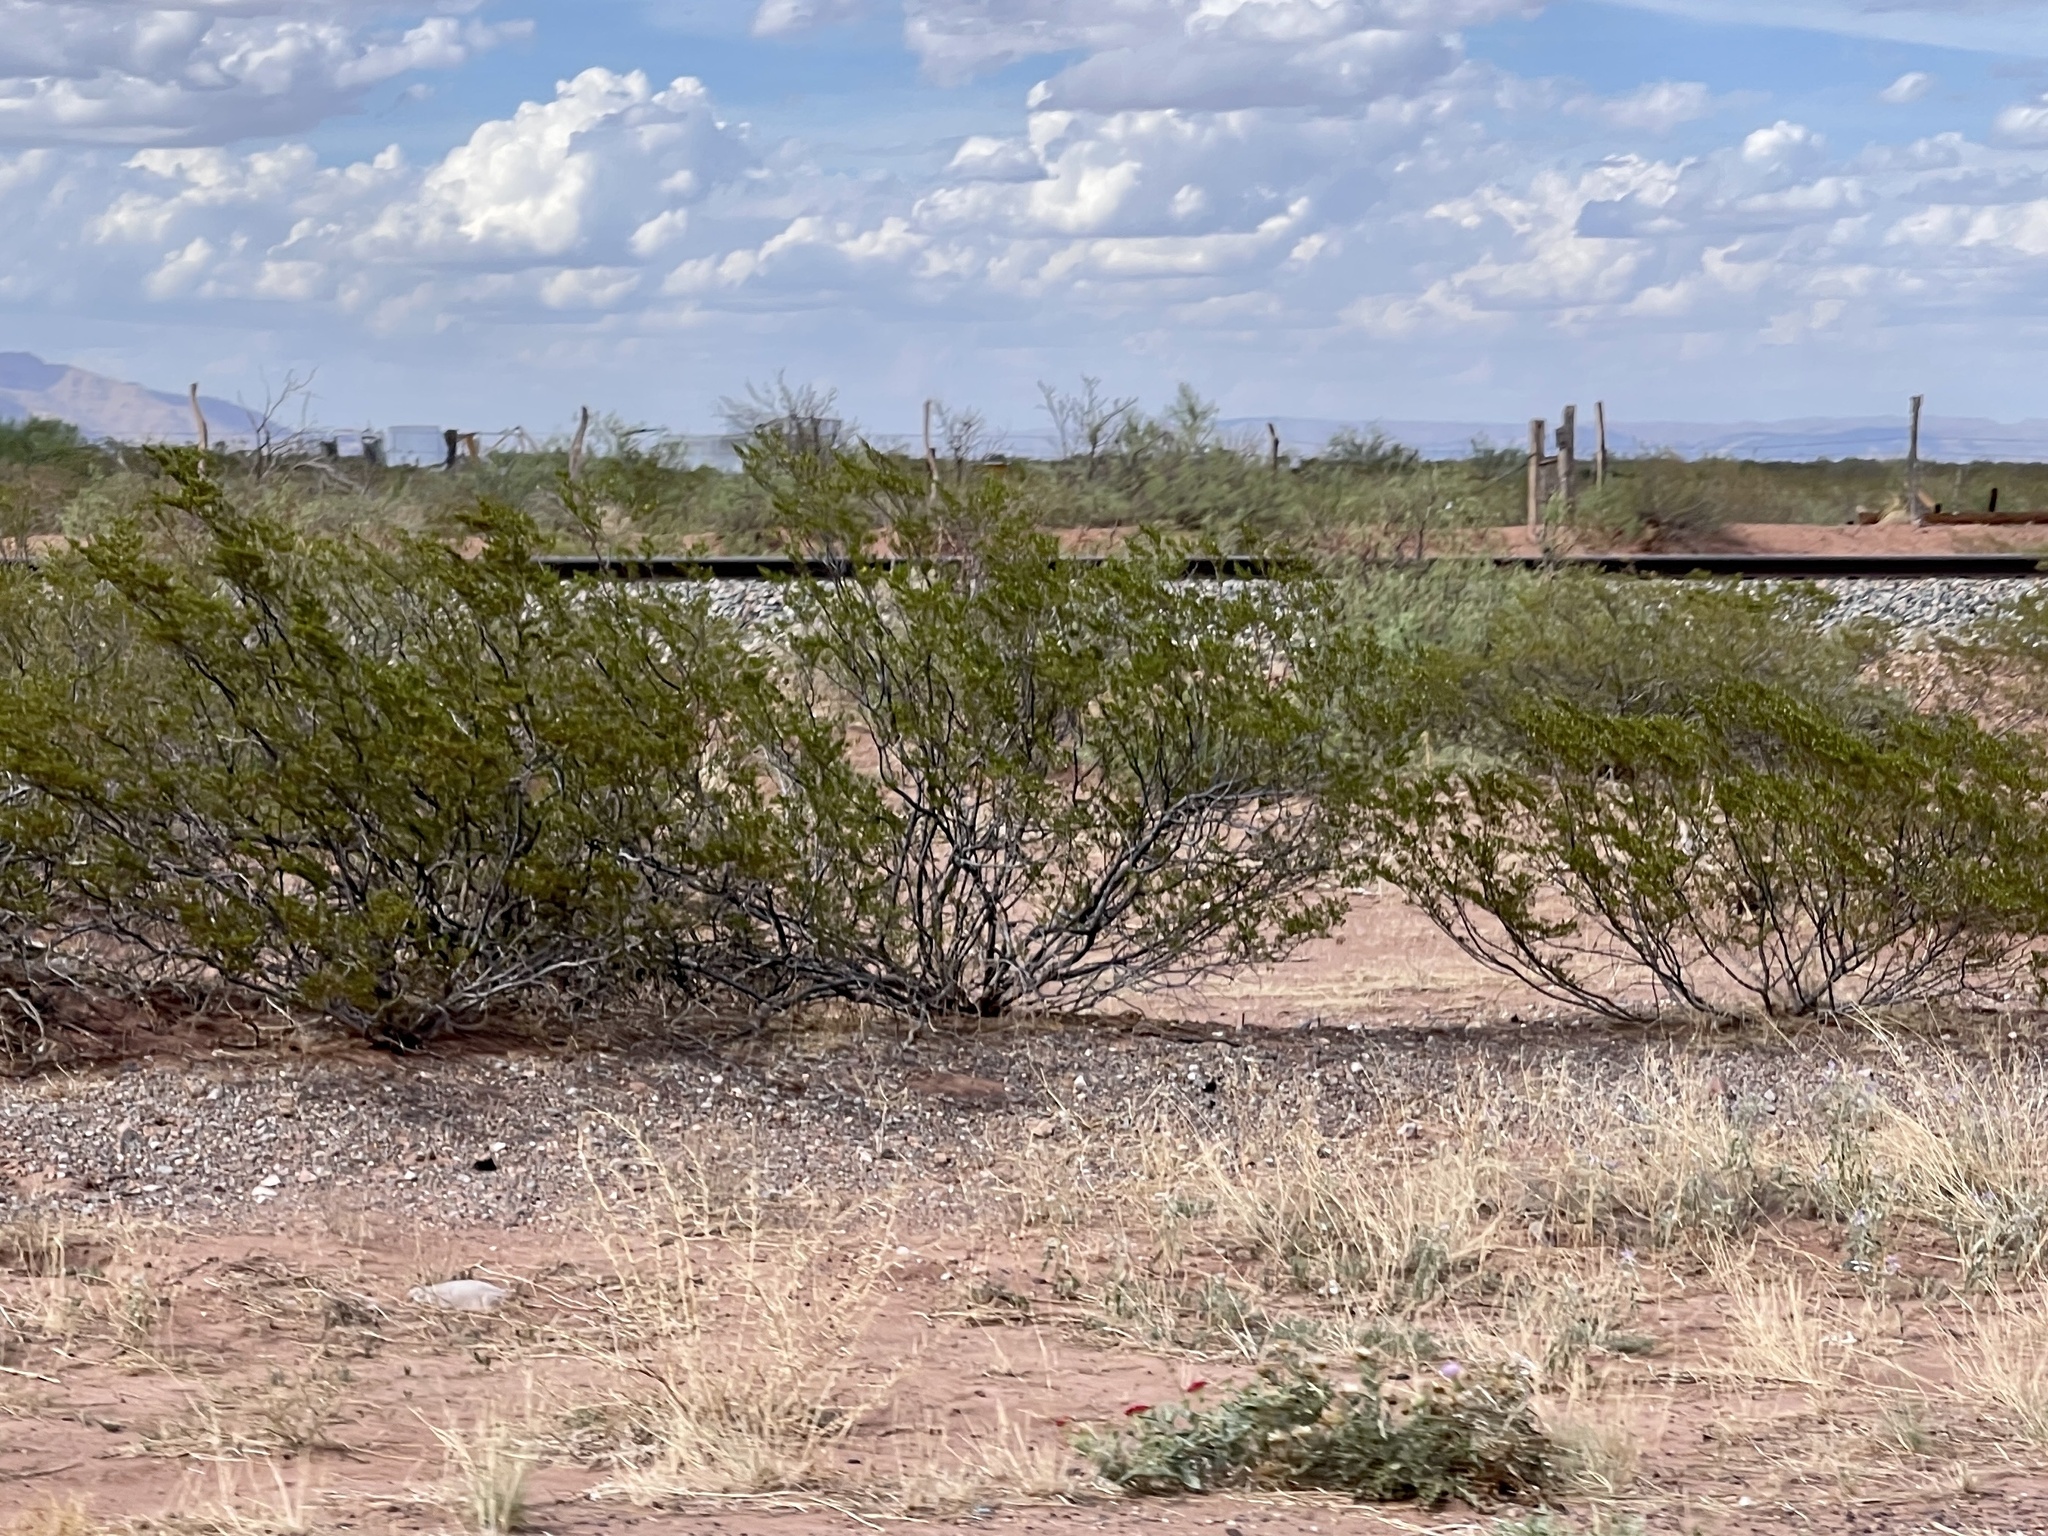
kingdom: Plantae
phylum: Tracheophyta
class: Magnoliopsida
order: Zygophyllales
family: Zygophyllaceae
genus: Larrea
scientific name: Larrea tridentata
